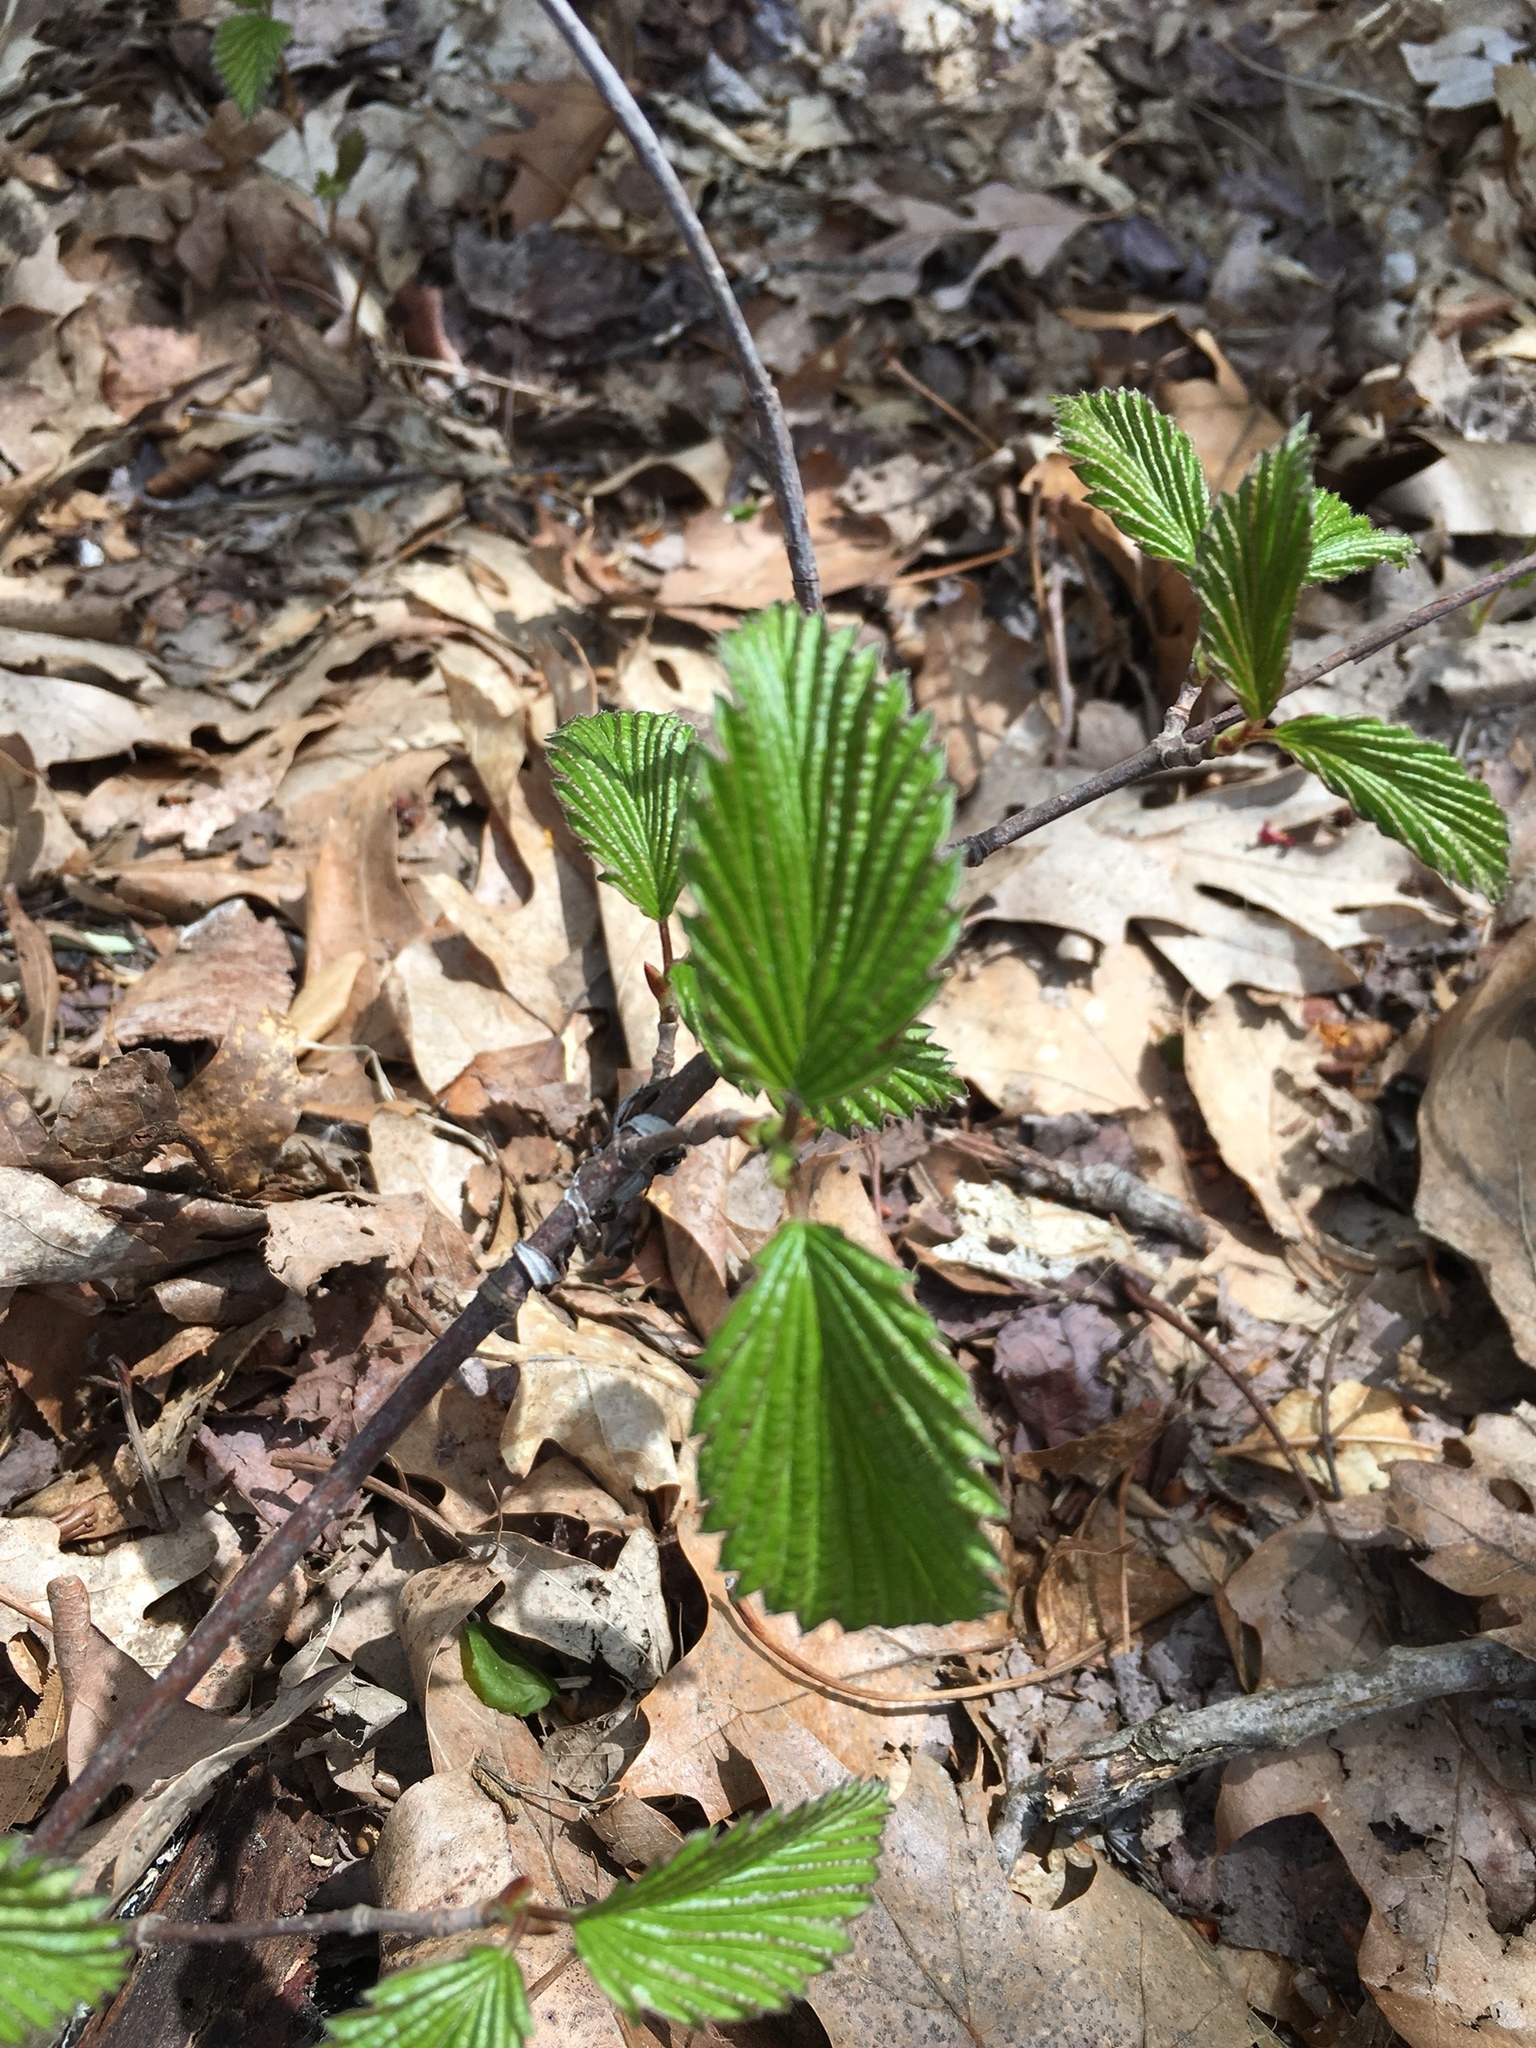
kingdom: Plantae
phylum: Tracheophyta
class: Magnoliopsida
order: Dipsacales
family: Viburnaceae
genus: Viburnum
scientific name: Viburnum dentatum
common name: Arrow-wood
